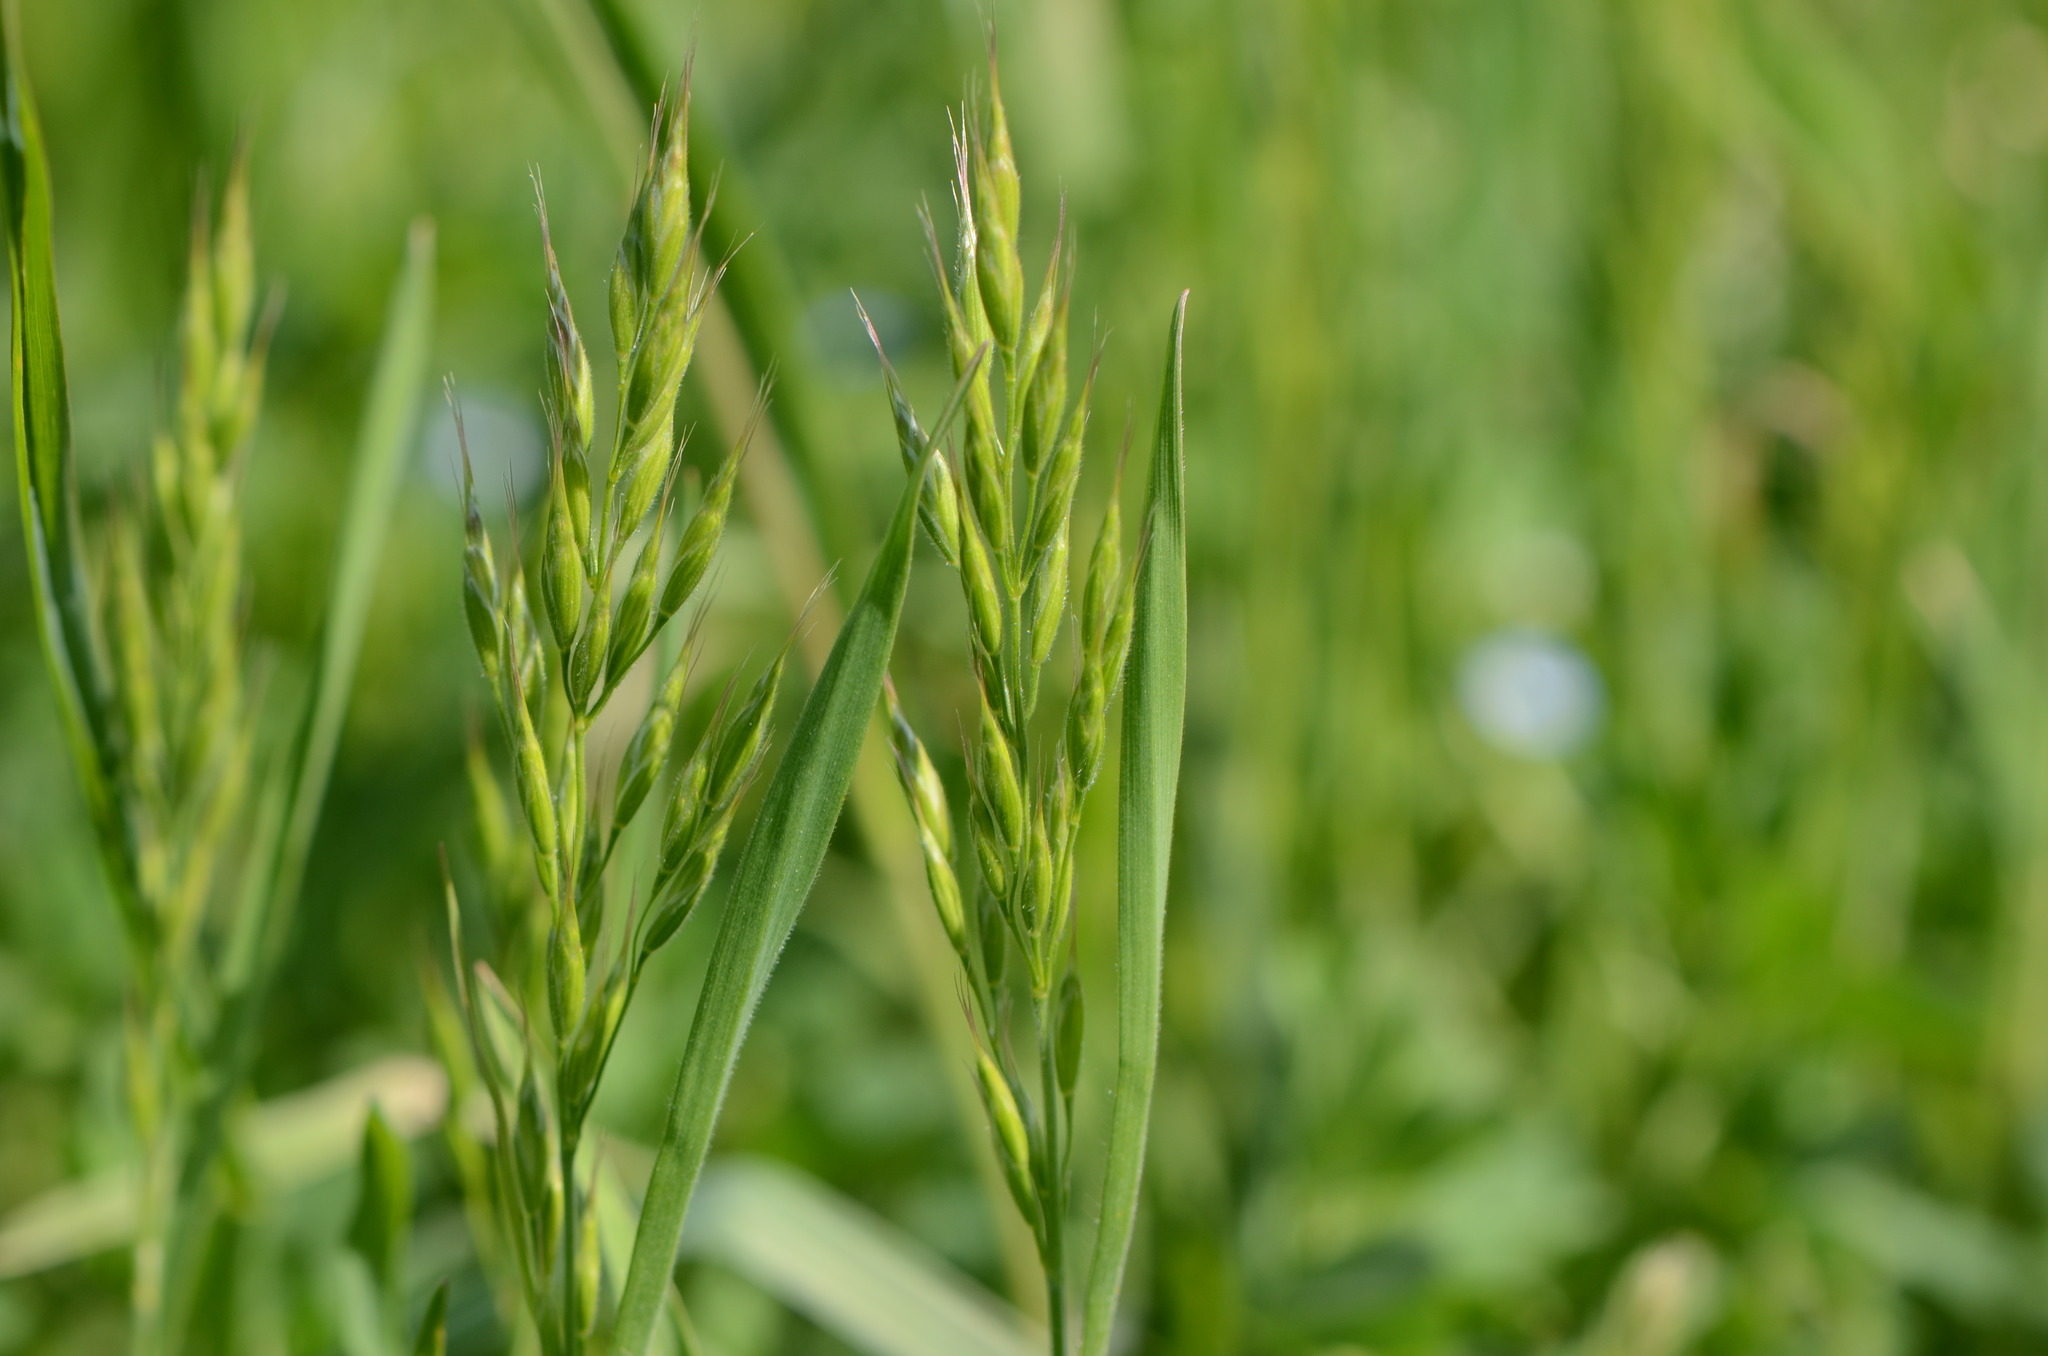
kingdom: Plantae
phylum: Tracheophyta
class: Liliopsida
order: Poales
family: Poaceae
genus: Bromus
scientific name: Bromus hordeaceus
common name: Soft brome
